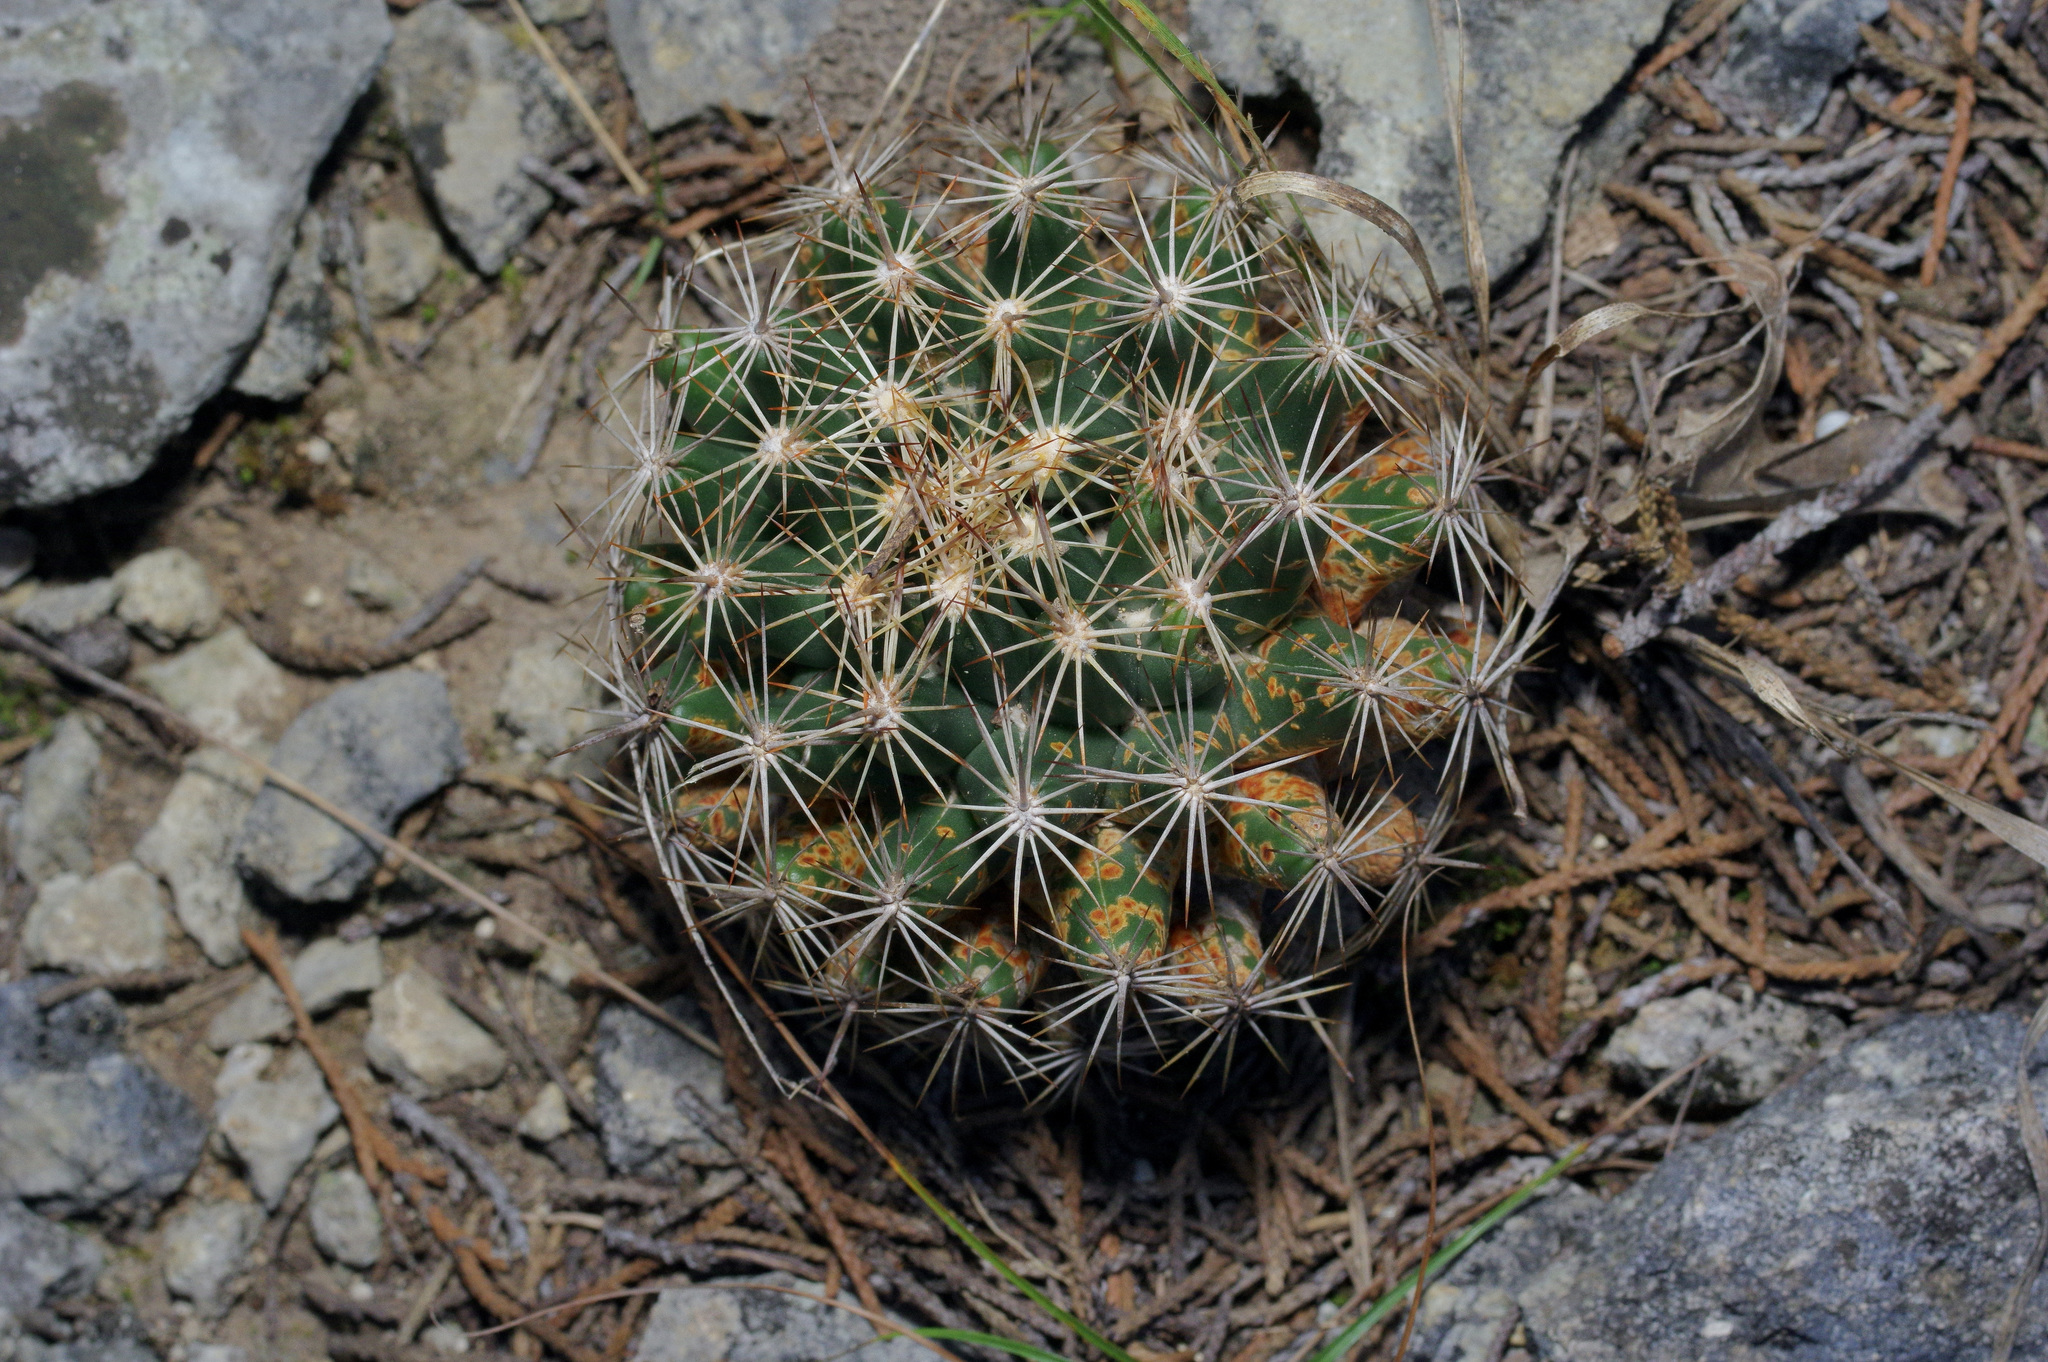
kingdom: Plantae
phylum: Tracheophyta
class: Magnoliopsida
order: Caryophyllales
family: Cactaceae
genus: Coryphantha
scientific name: Coryphantha sulcata
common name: Finger cactus
